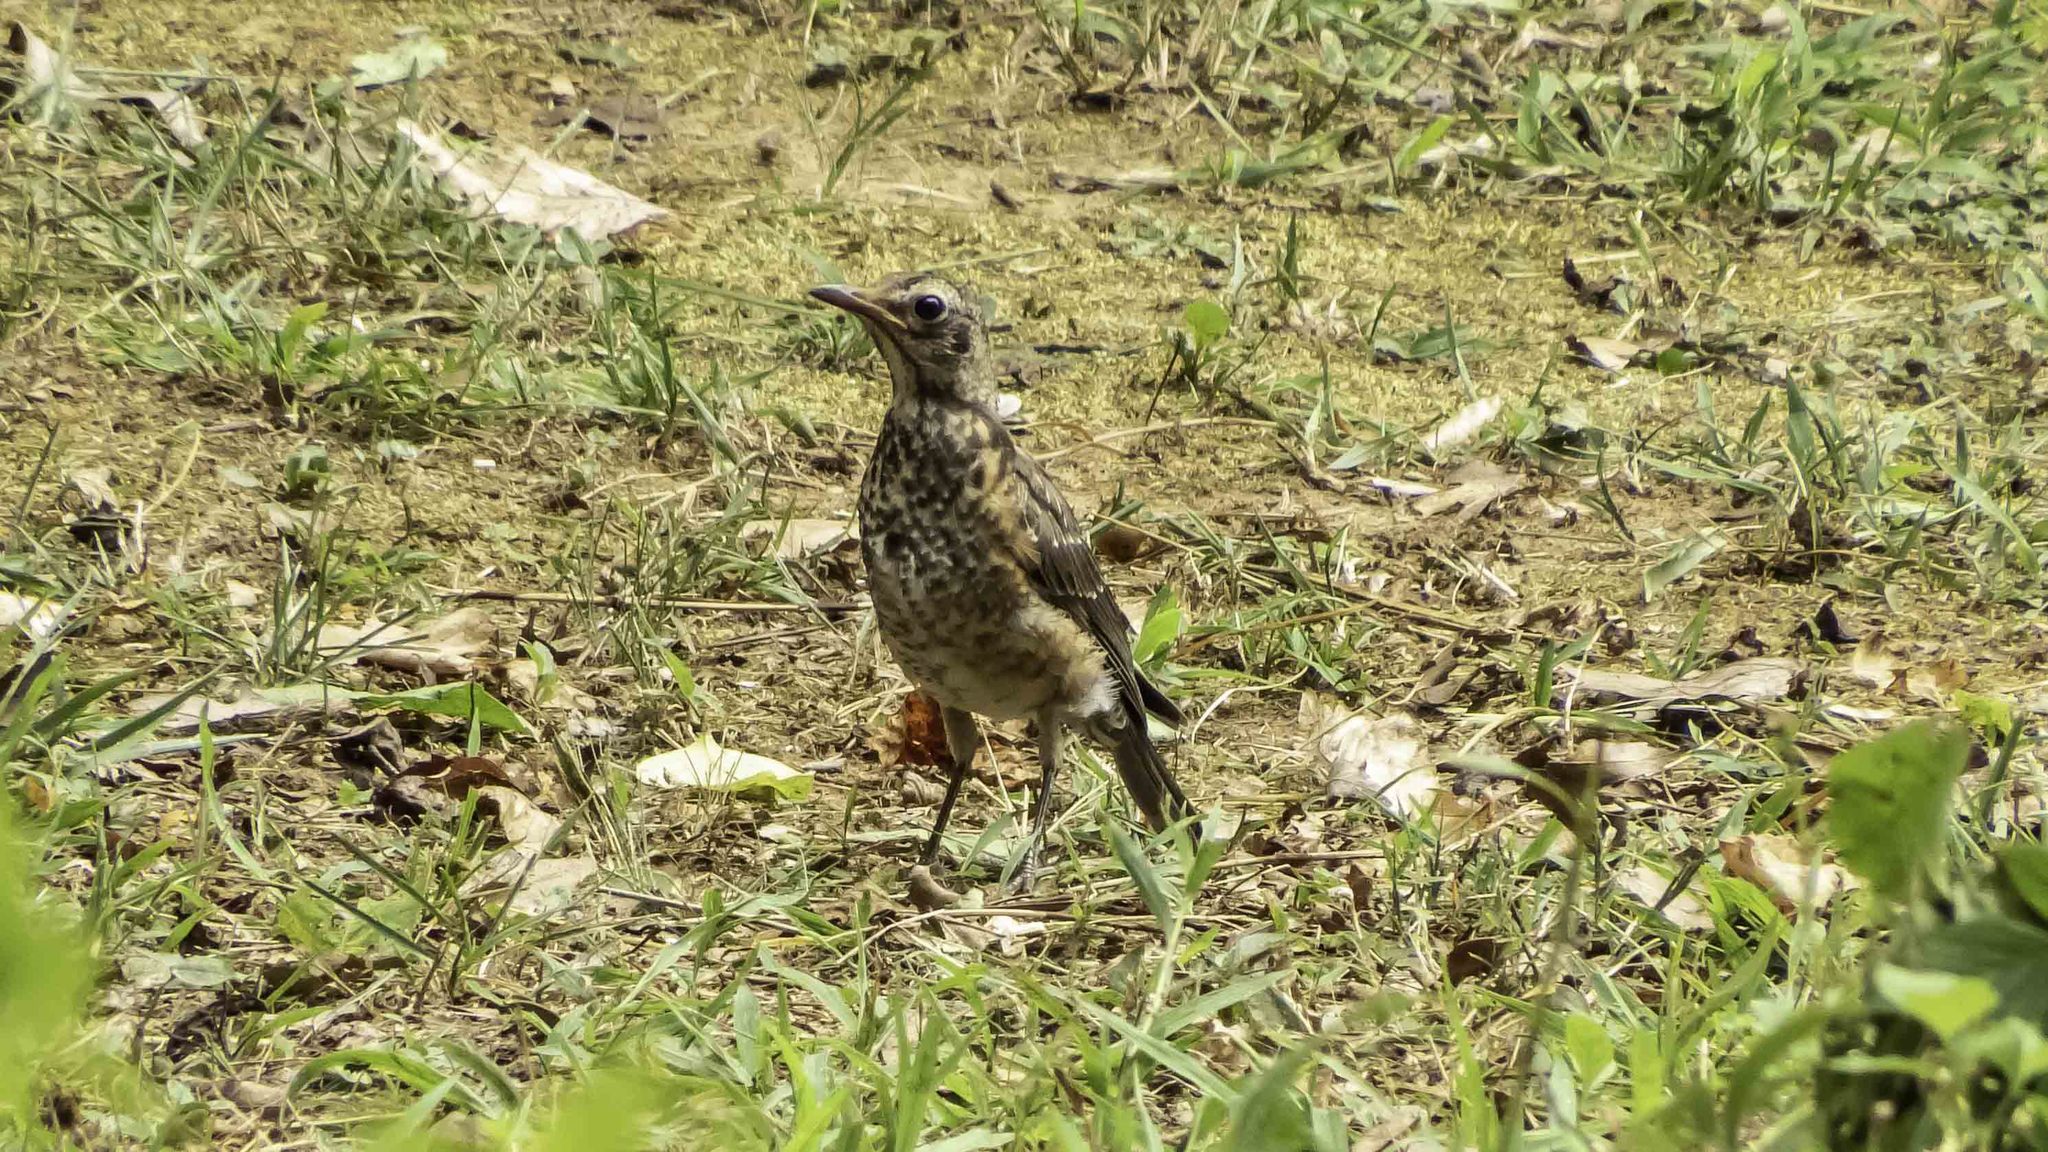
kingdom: Animalia
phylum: Chordata
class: Aves
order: Passeriformes
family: Turdidae
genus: Turdus
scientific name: Turdus migratorius
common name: American robin
